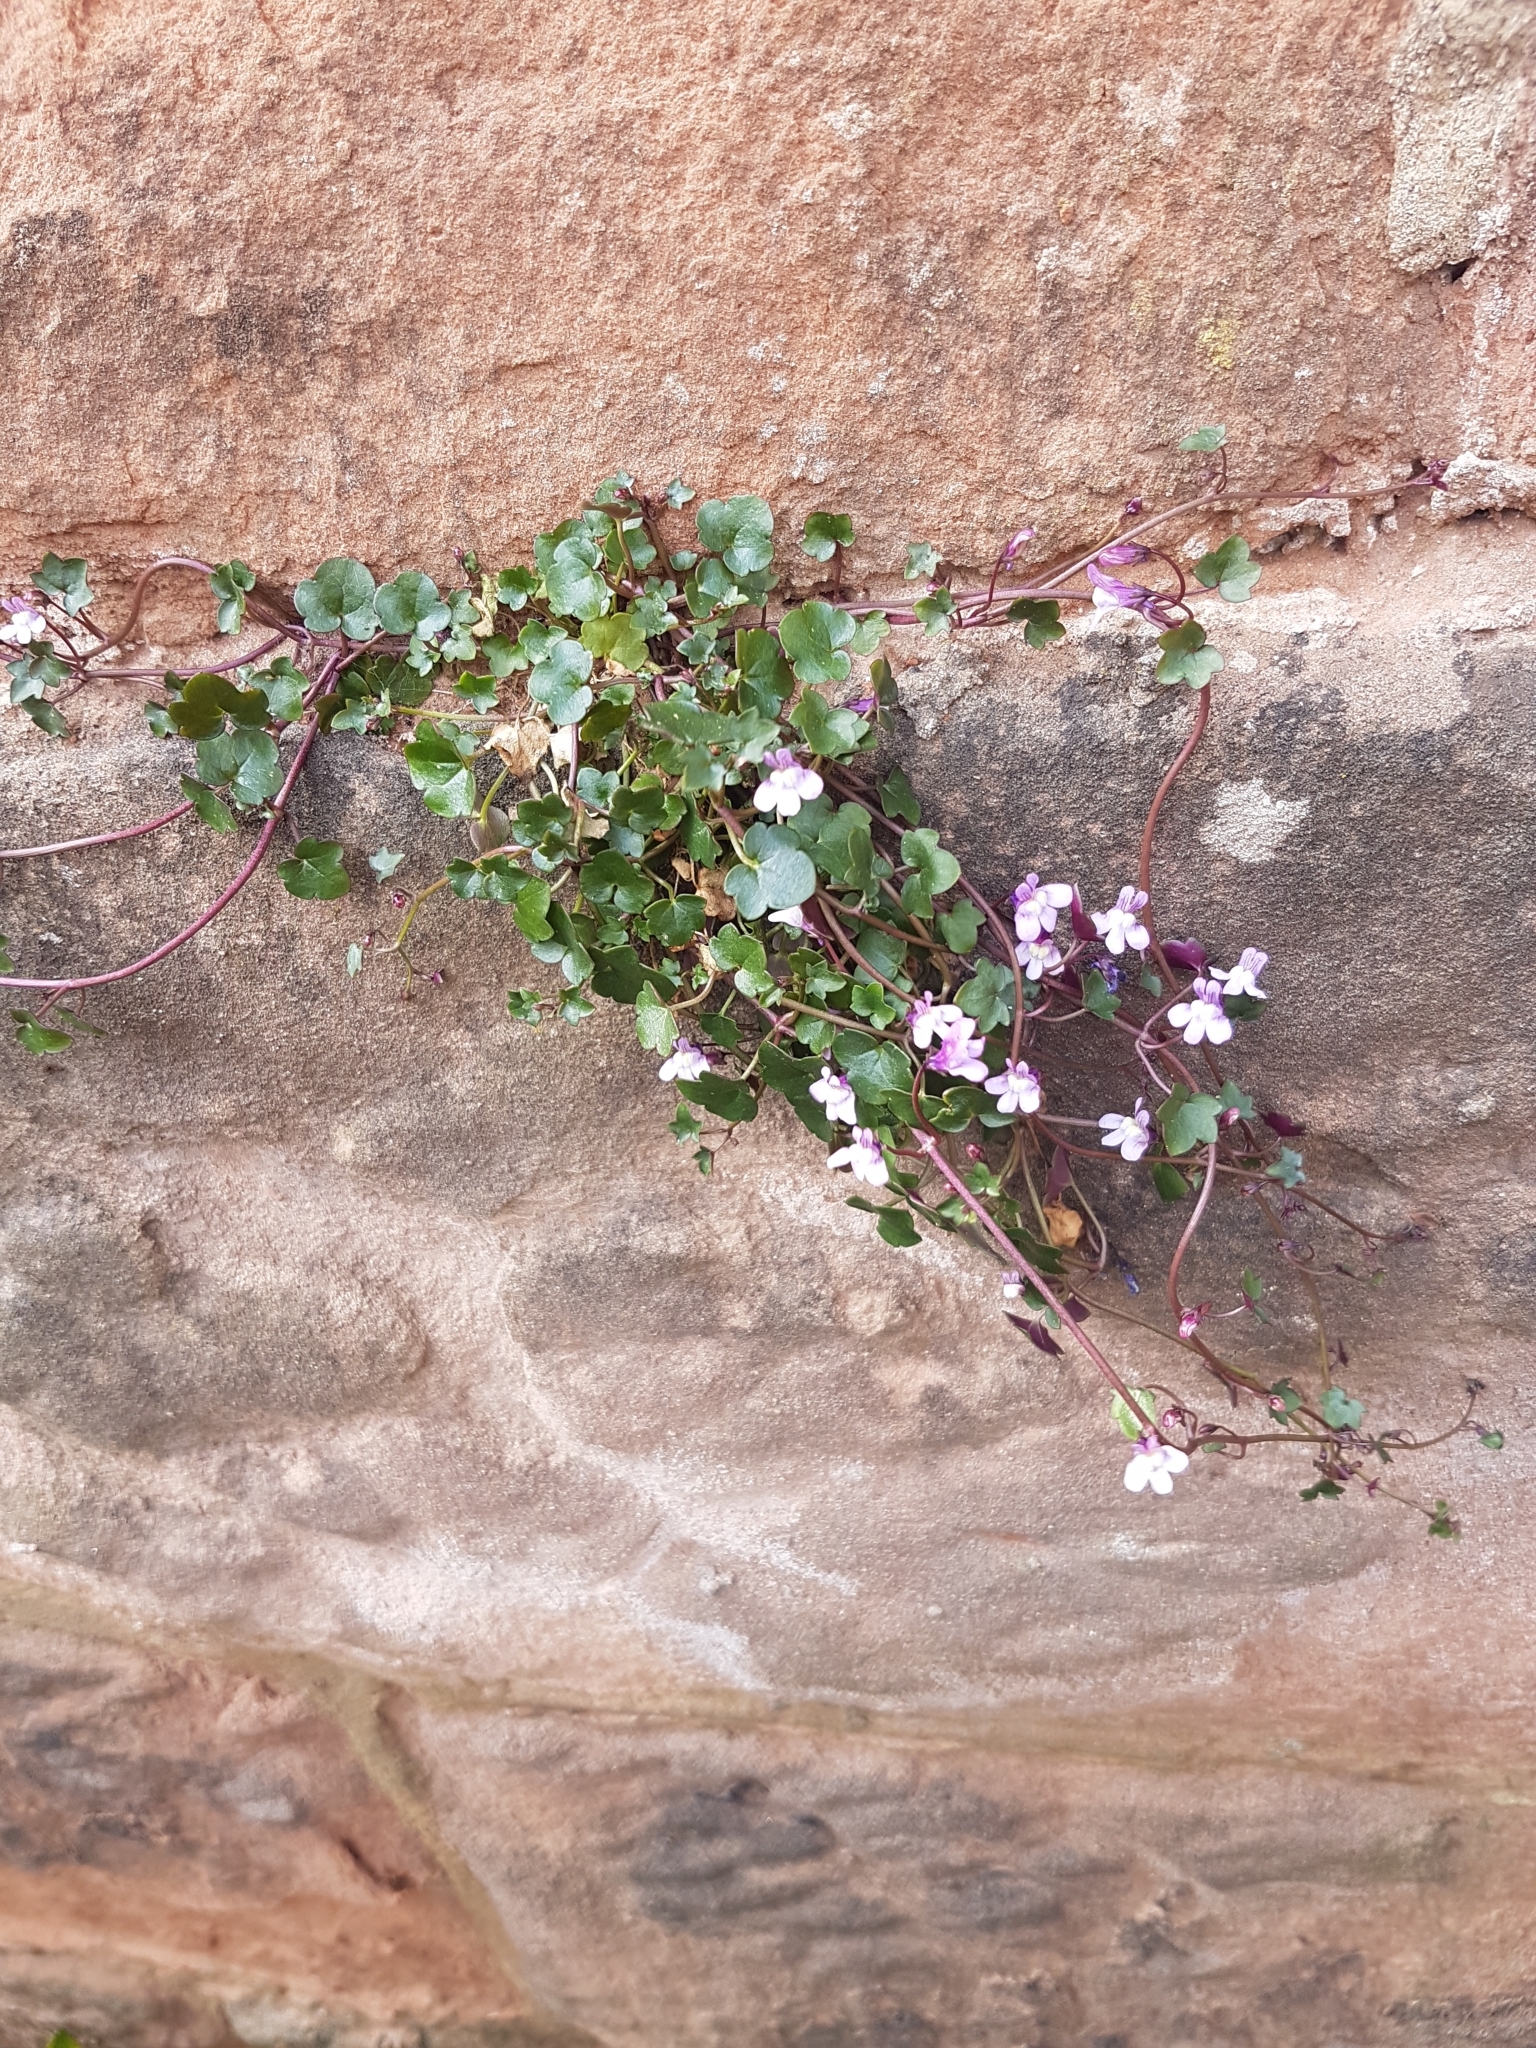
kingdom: Plantae
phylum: Tracheophyta
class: Magnoliopsida
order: Lamiales
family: Plantaginaceae
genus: Cymbalaria
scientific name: Cymbalaria muralis
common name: Ivy-leaved toadflax
